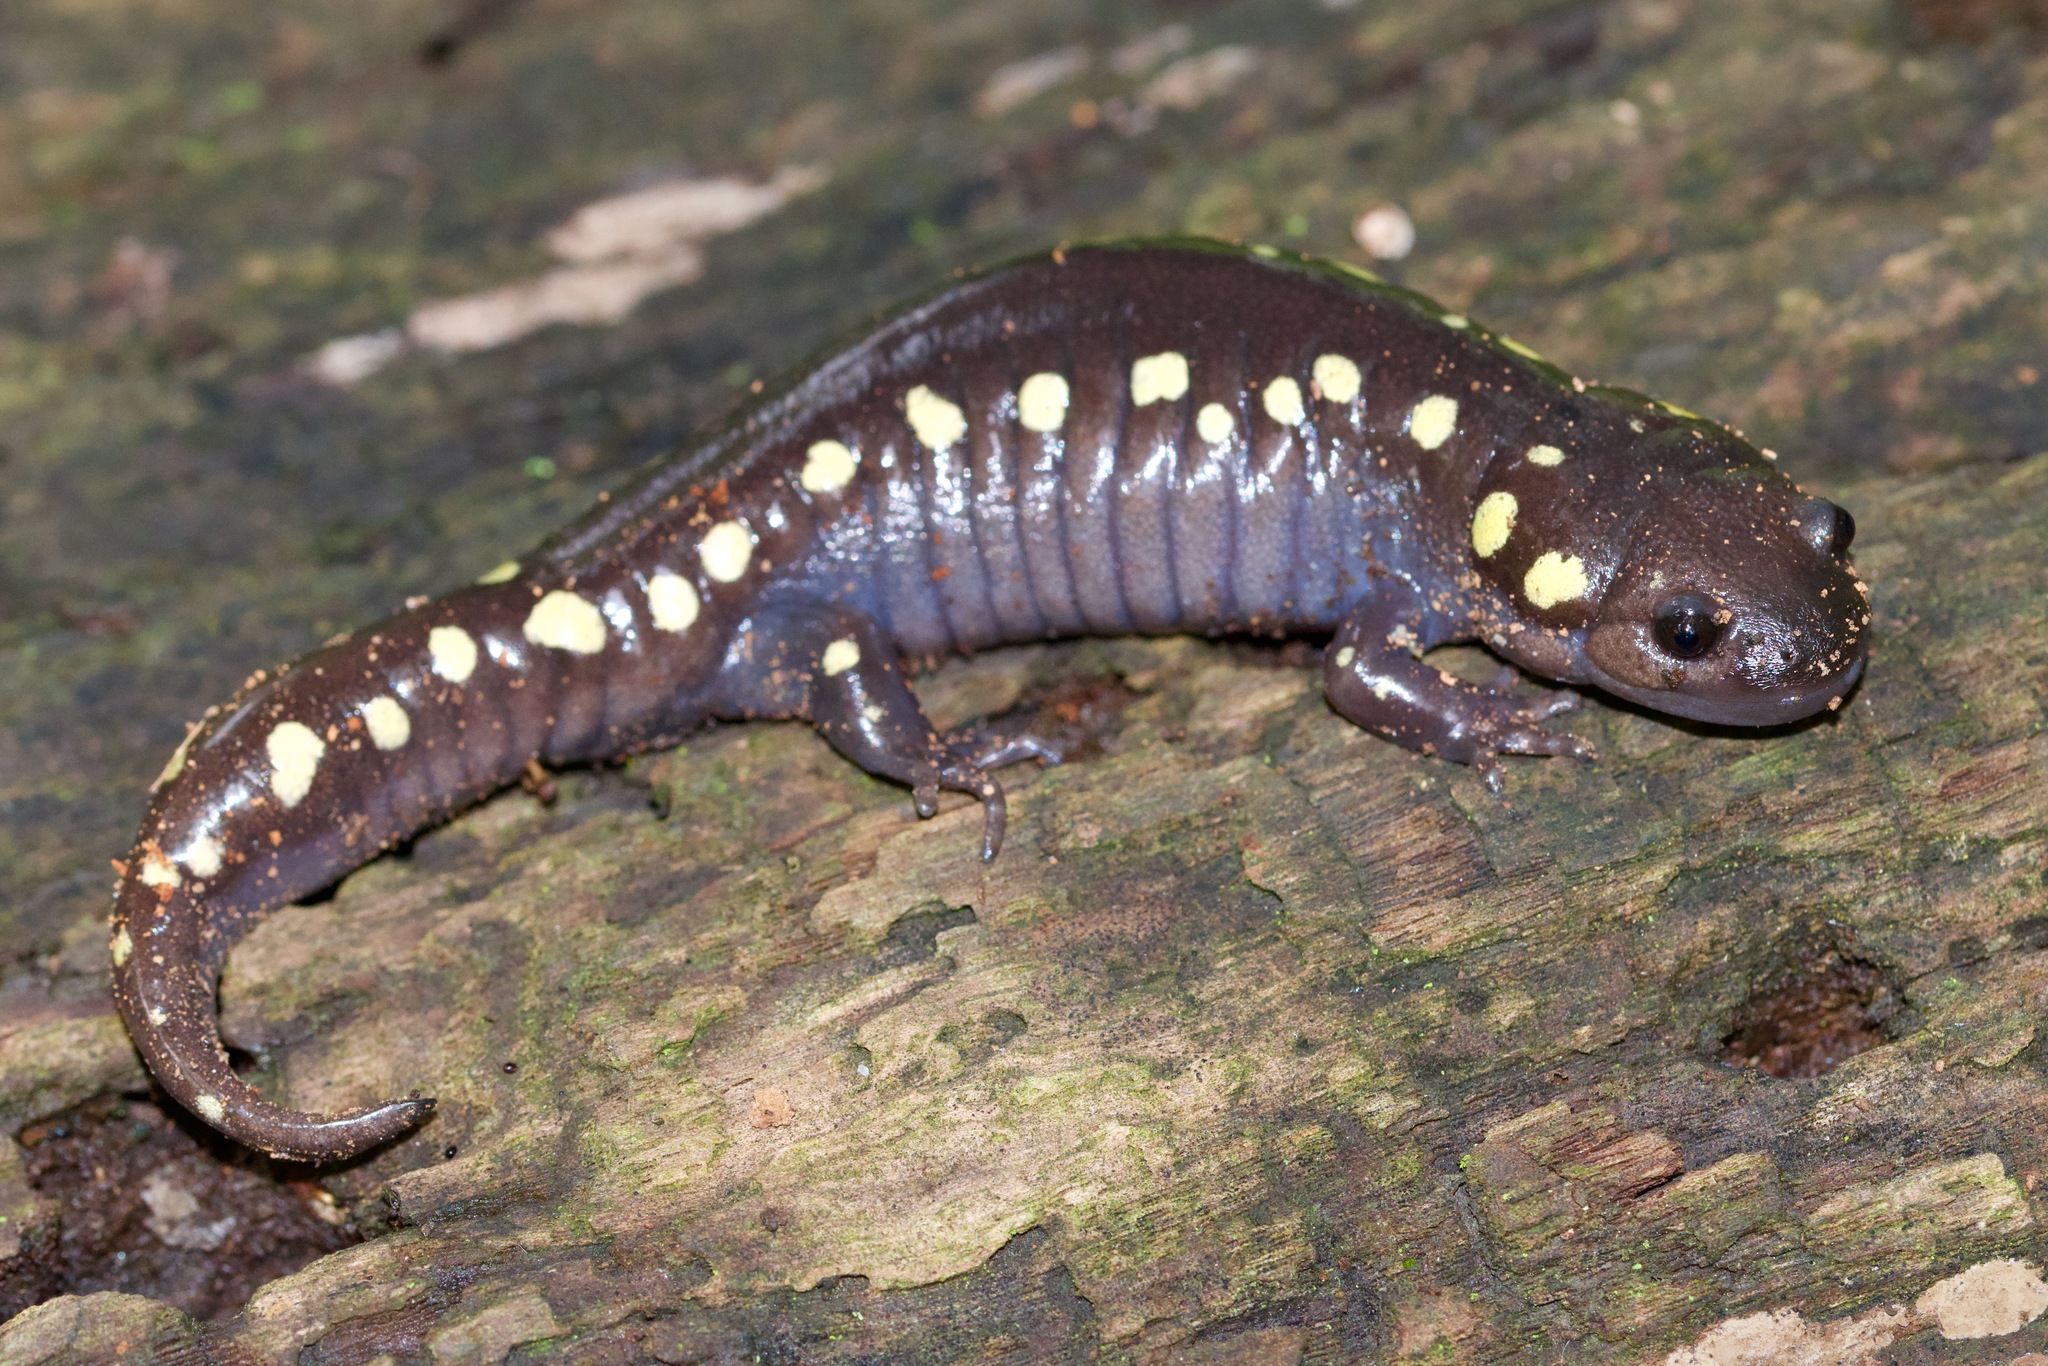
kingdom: Animalia
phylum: Chordata
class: Amphibia
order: Caudata
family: Ambystomatidae
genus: Ambystoma
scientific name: Ambystoma maculatum
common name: Spotted salamander
